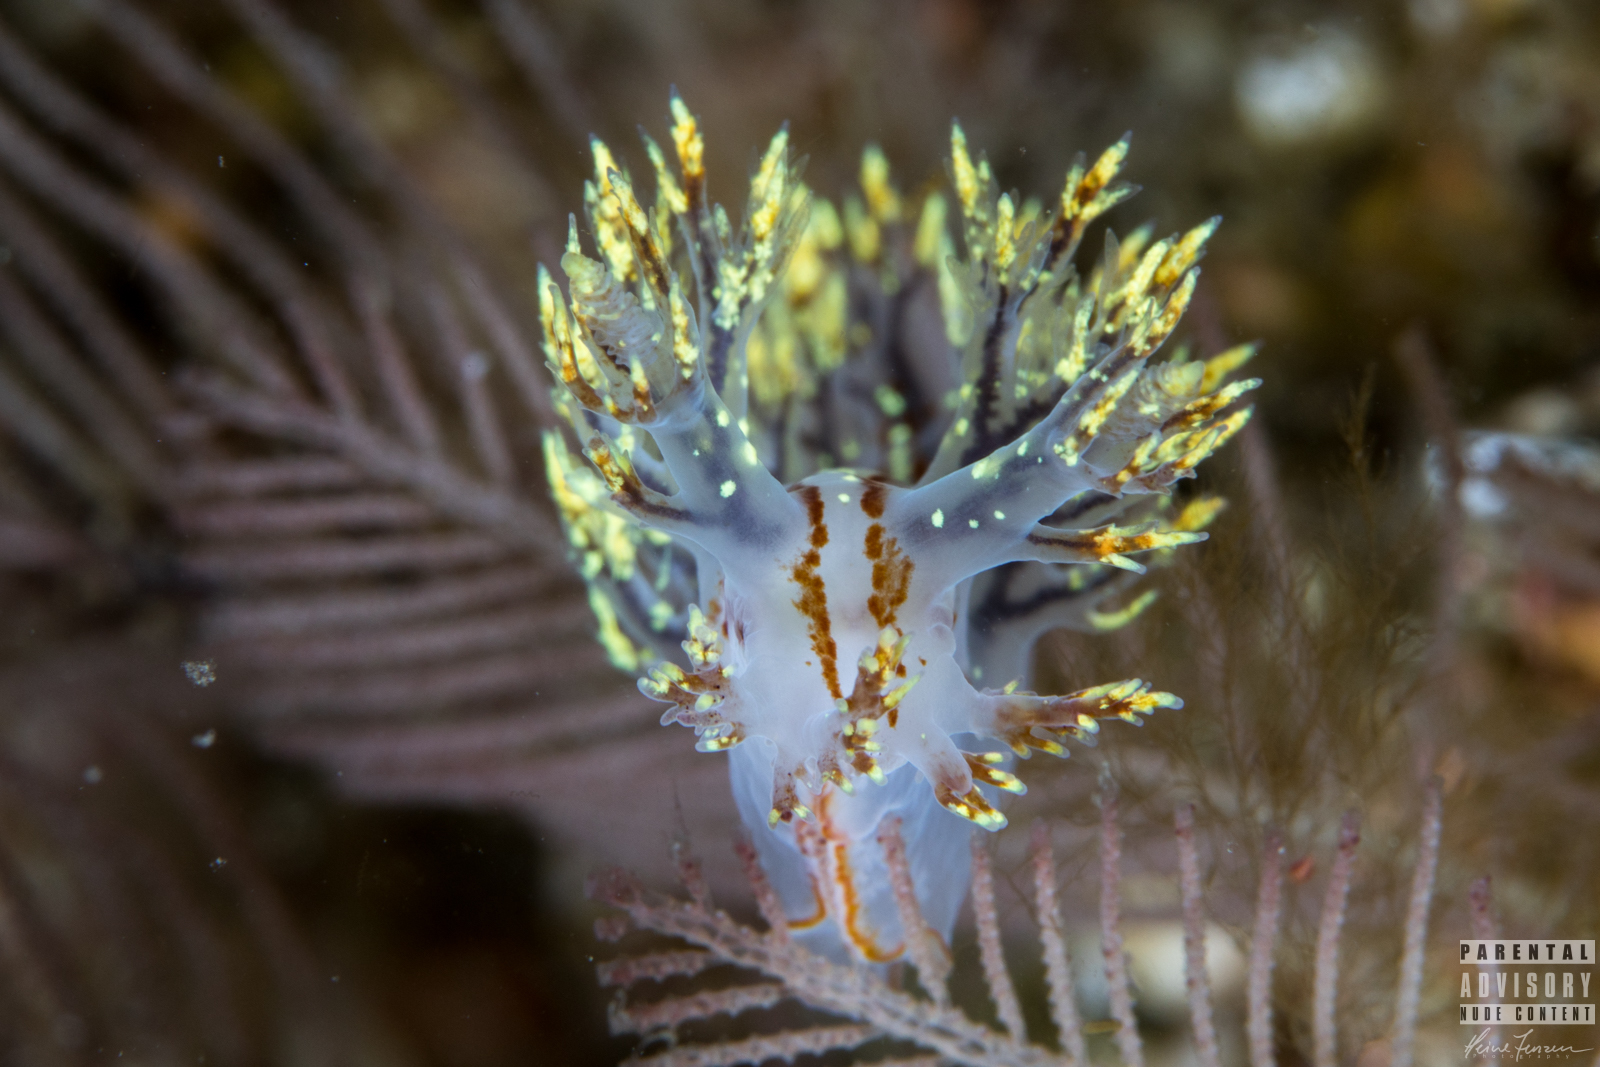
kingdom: Animalia
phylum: Mollusca
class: Gastropoda
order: Nudibranchia
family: Dendronotidae
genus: Dendronotus
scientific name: Dendronotus yrjargul
